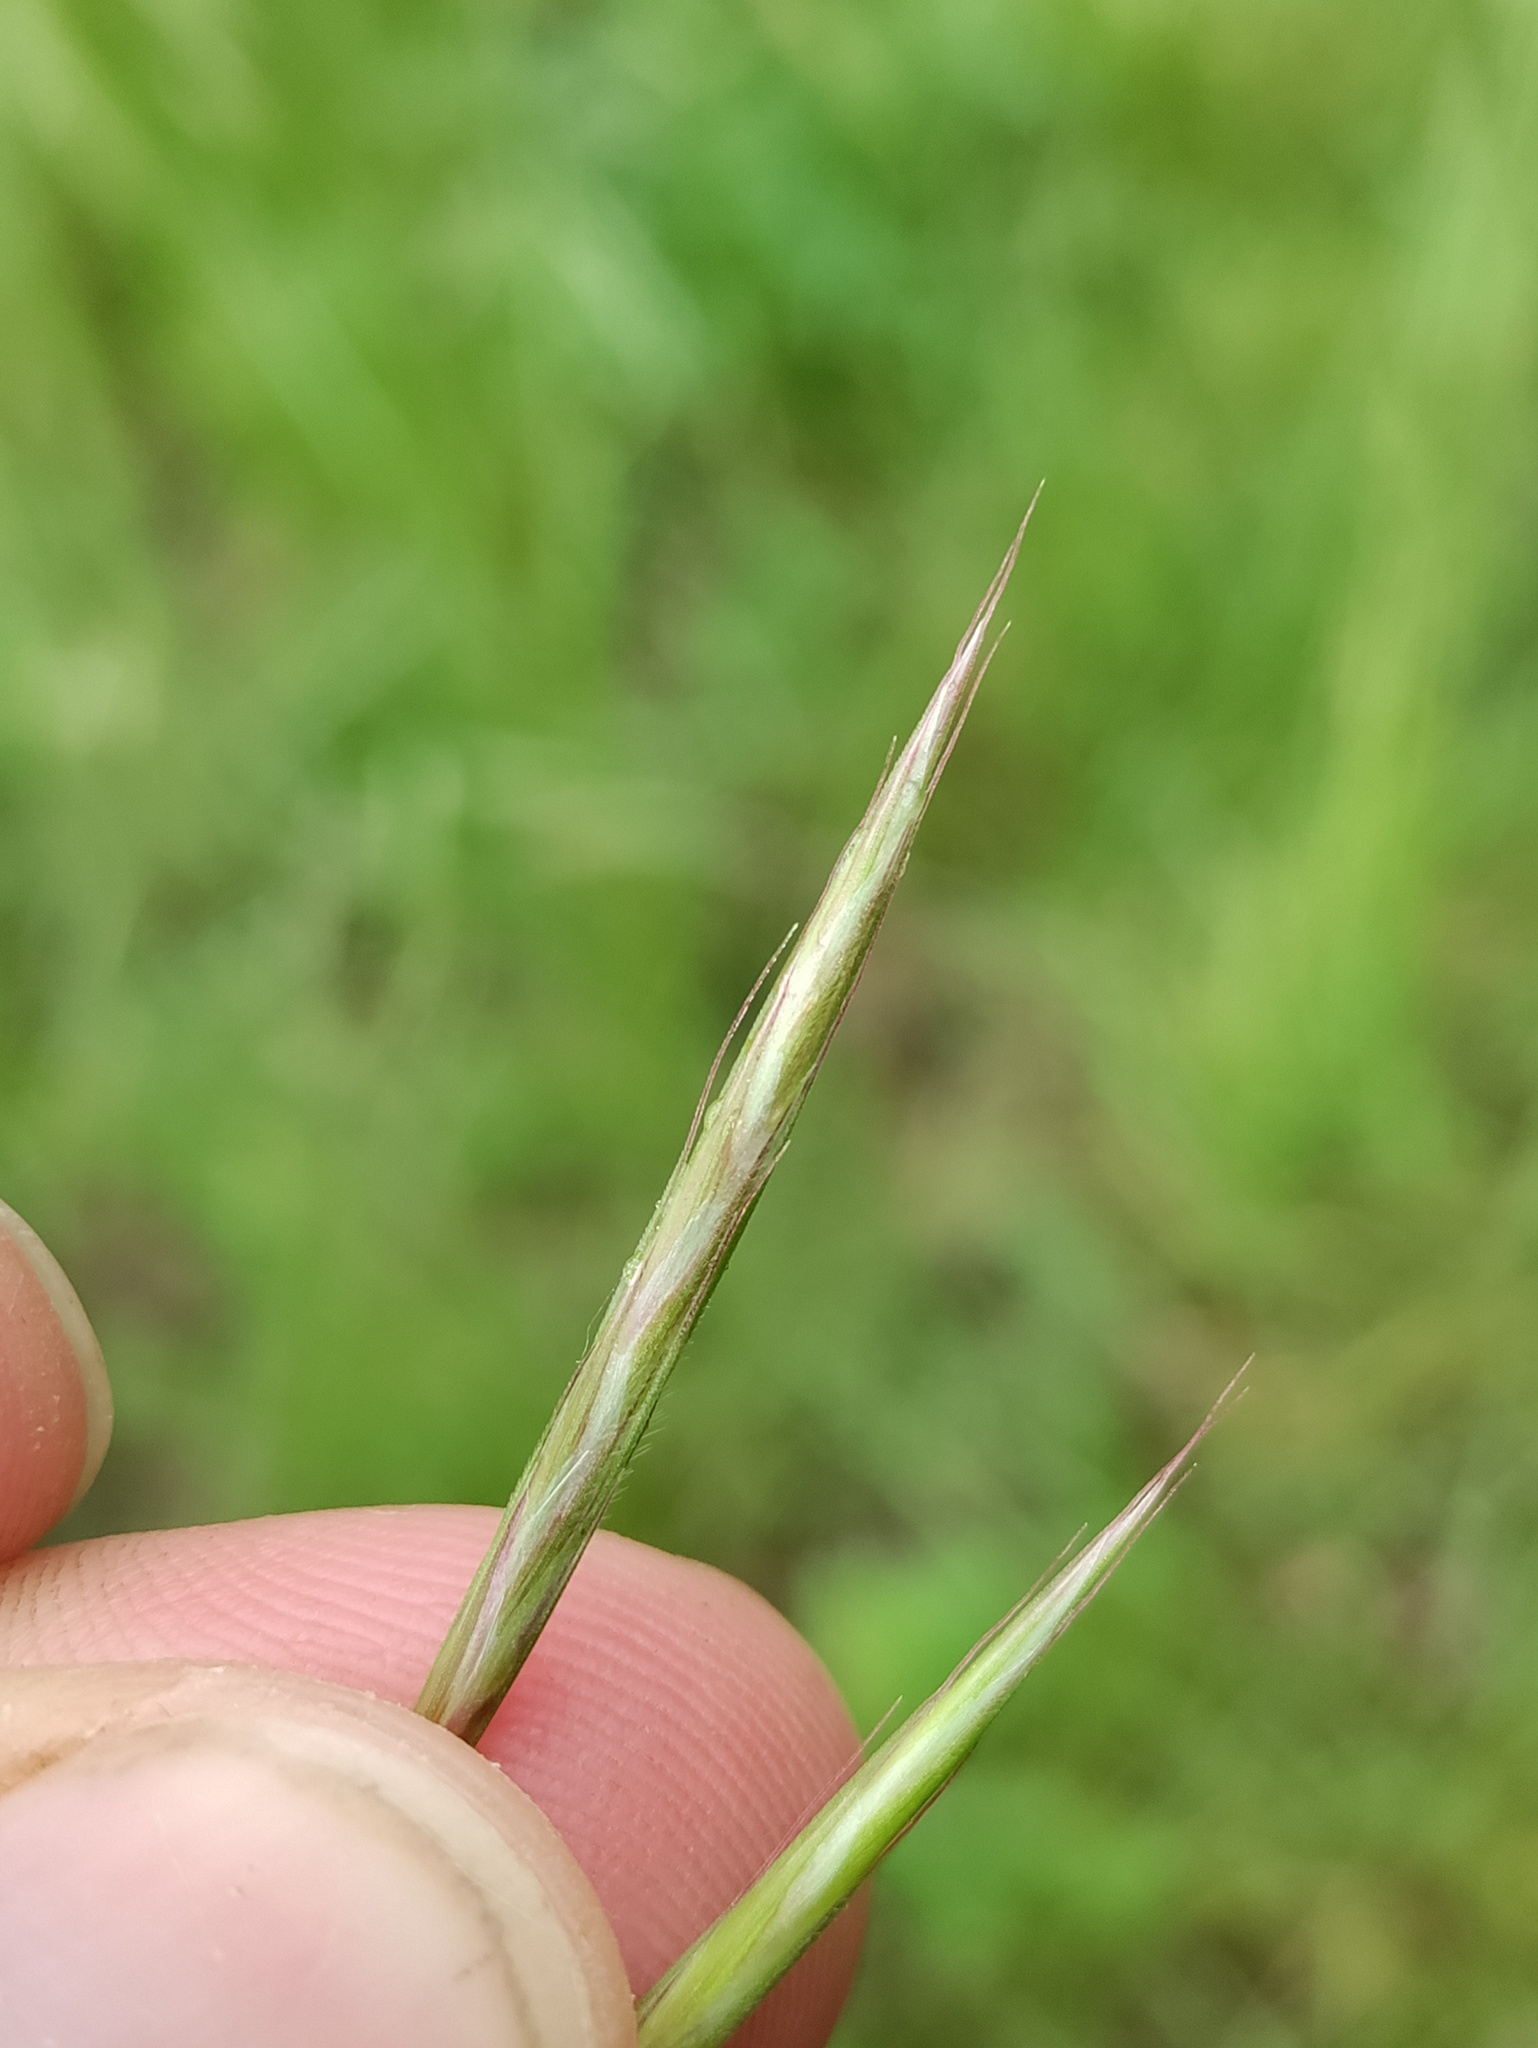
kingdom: Plantae
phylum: Tracheophyta
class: Liliopsida
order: Poales
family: Poaceae
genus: Bromus
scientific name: Bromus erectus
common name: Erect brome
